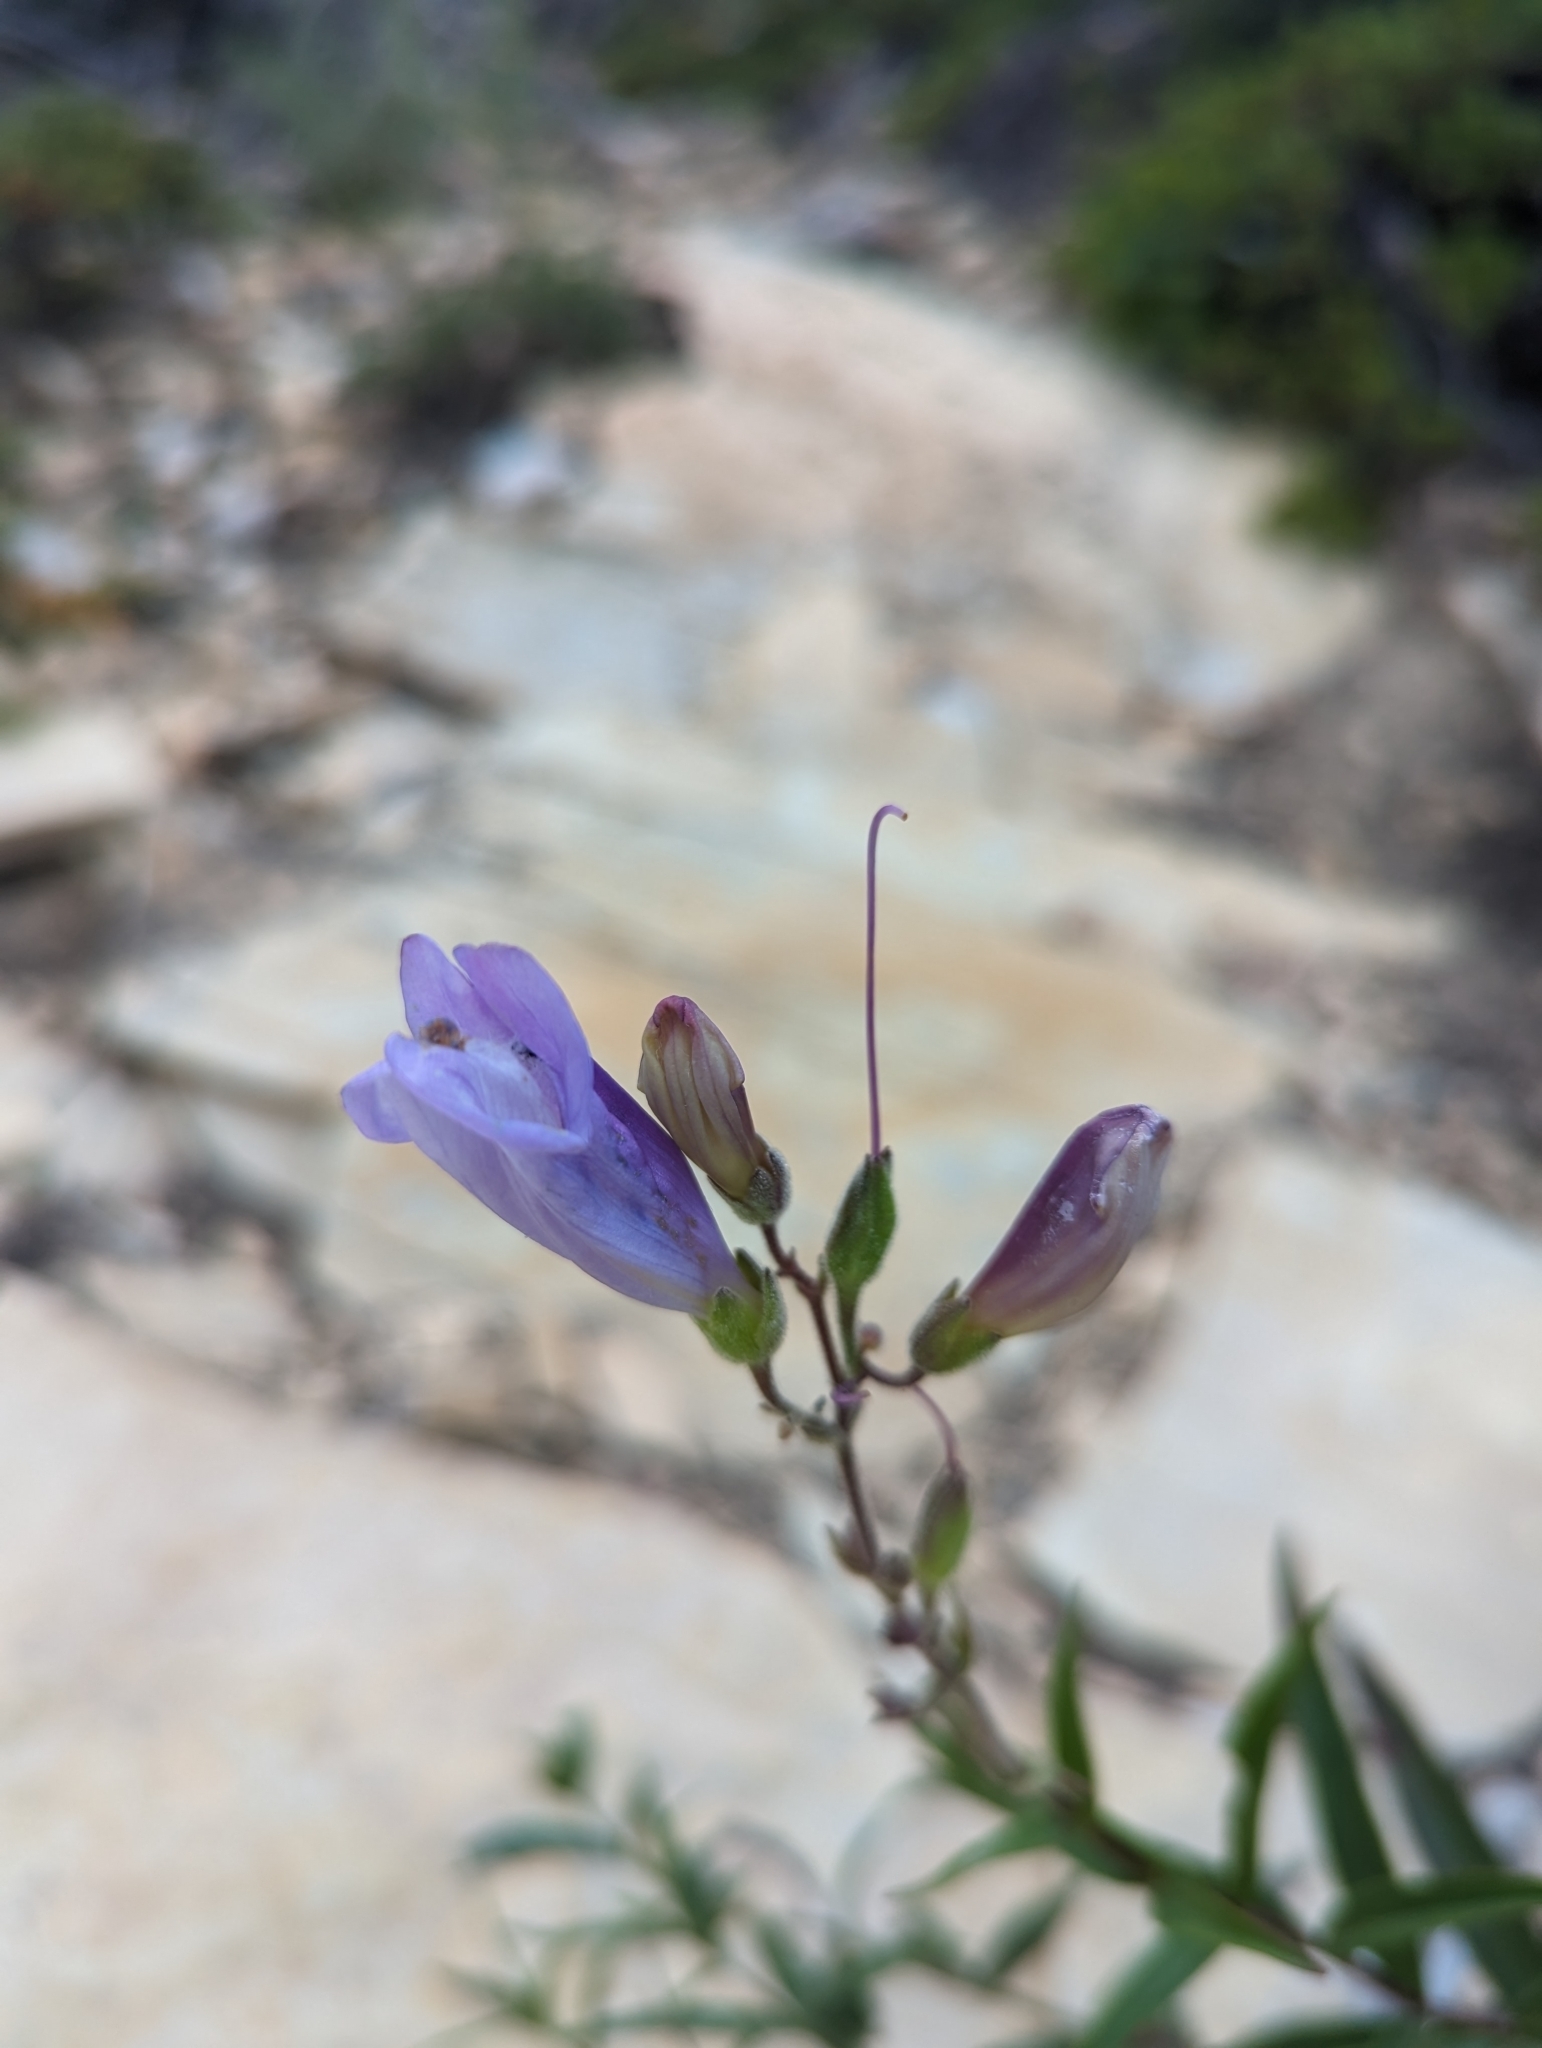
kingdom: Plantae
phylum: Tracheophyta
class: Magnoliopsida
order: Lamiales
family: Plantaginaceae
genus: Penstemon
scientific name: Penstemon lyalli
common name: Lyall's beardtongue
